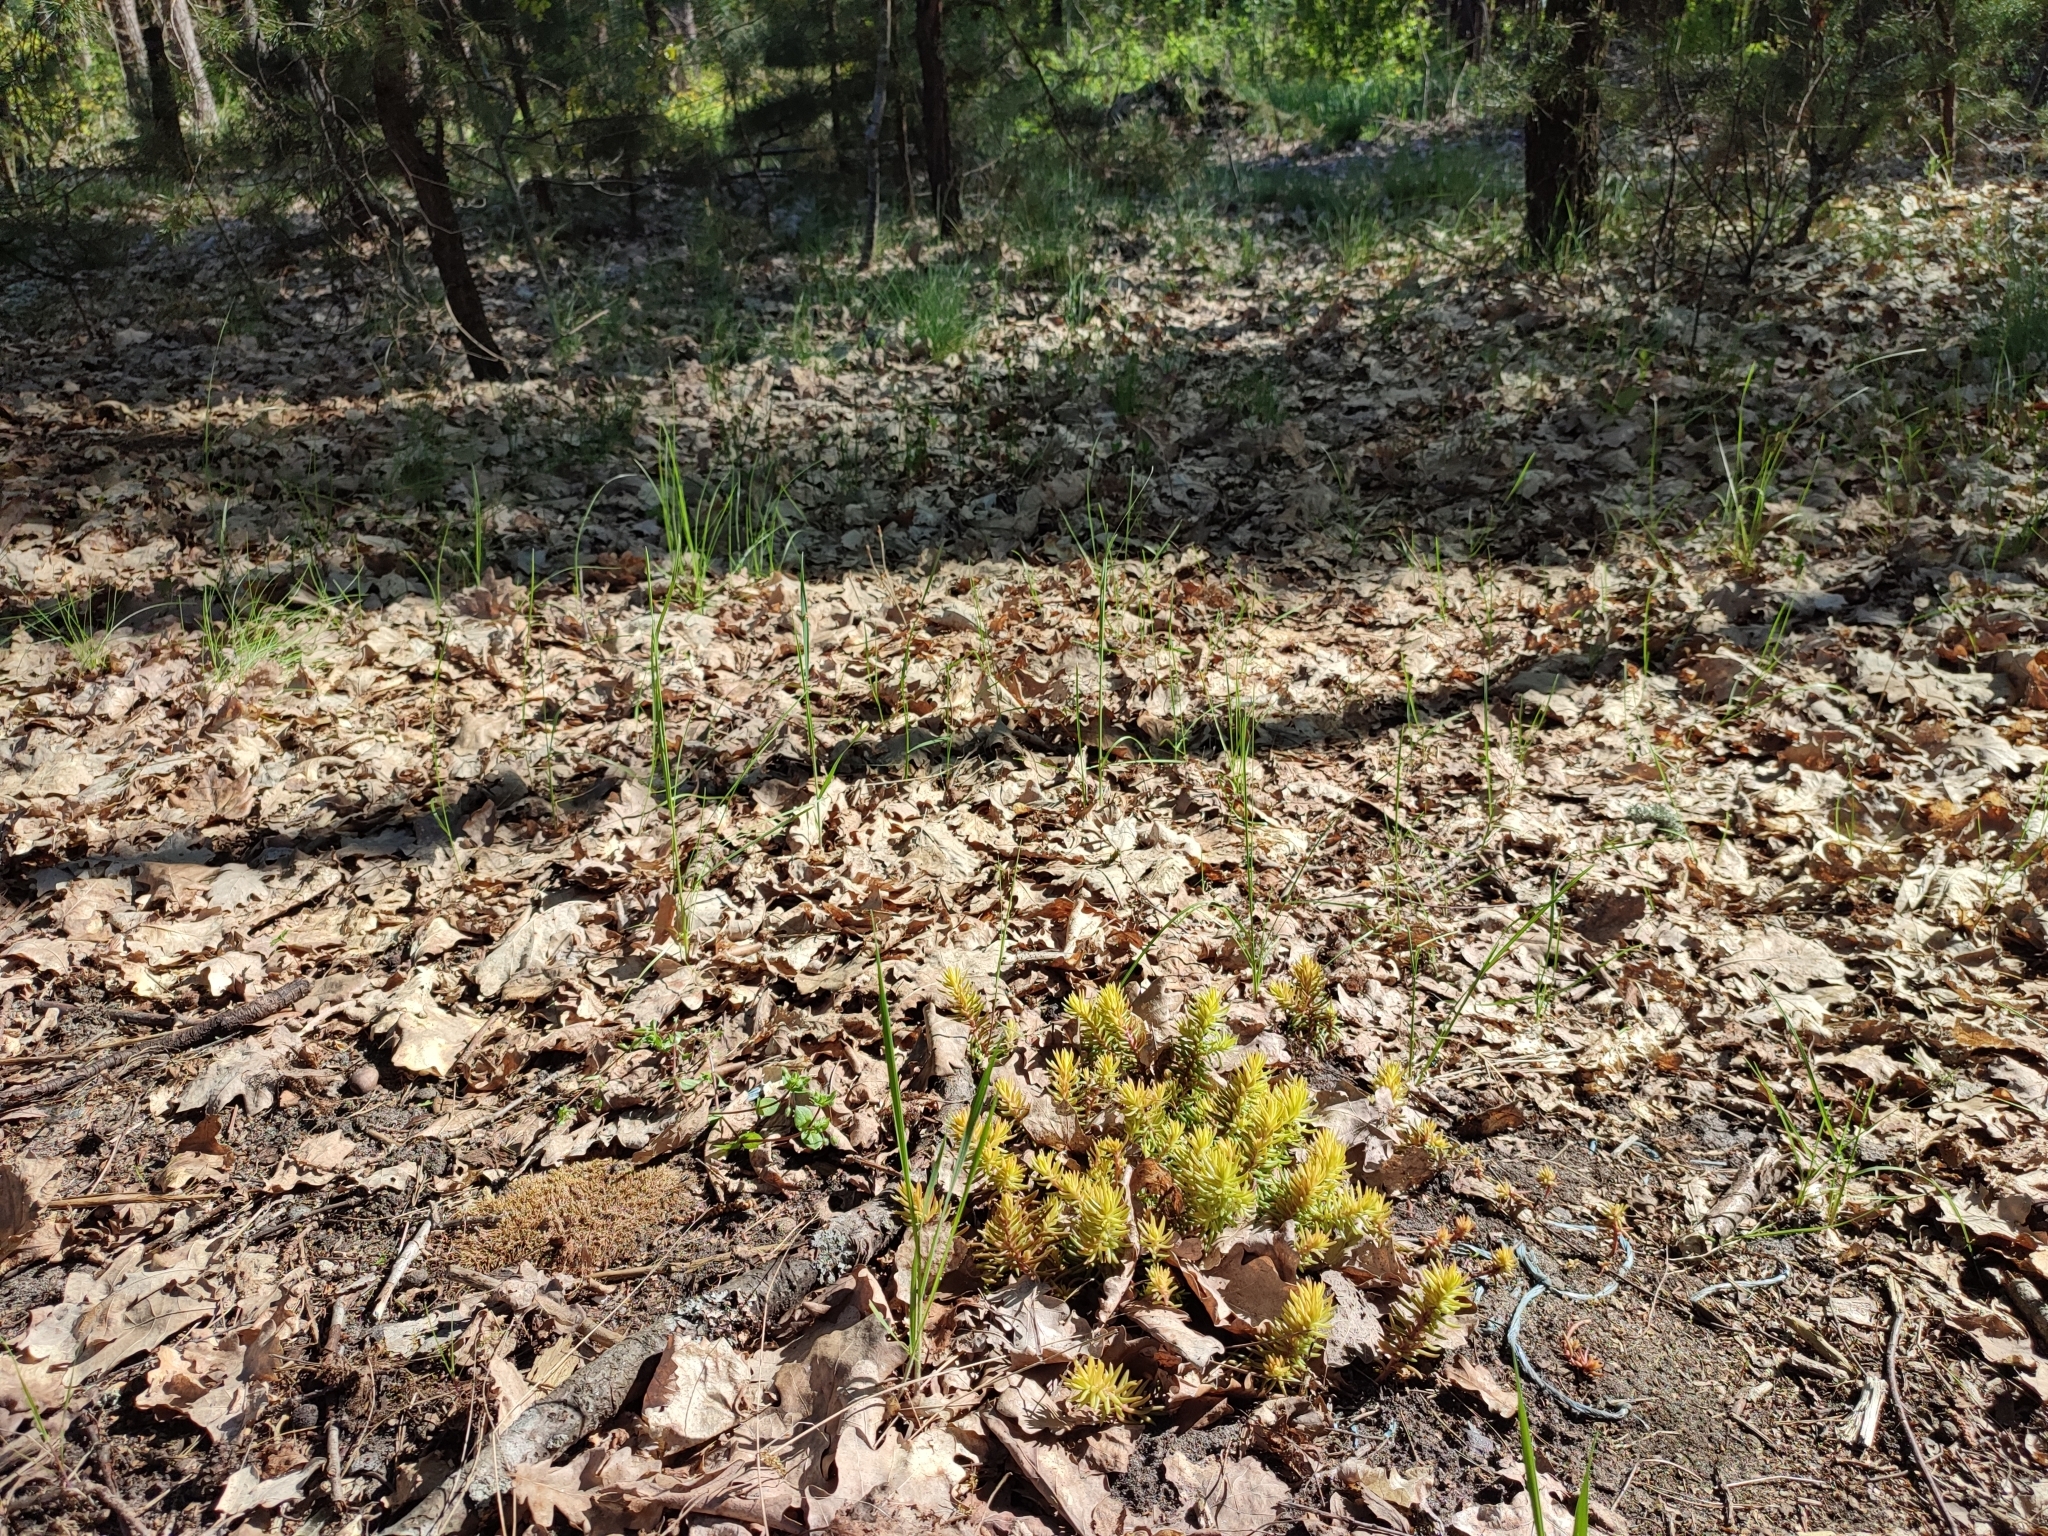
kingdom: Plantae
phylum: Tracheophyta
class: Magnoliopsida
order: Saxifragales
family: Crassulaceae
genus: Petrosedum
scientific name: Petrosedum rupestre
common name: Jenny's stonecrop
